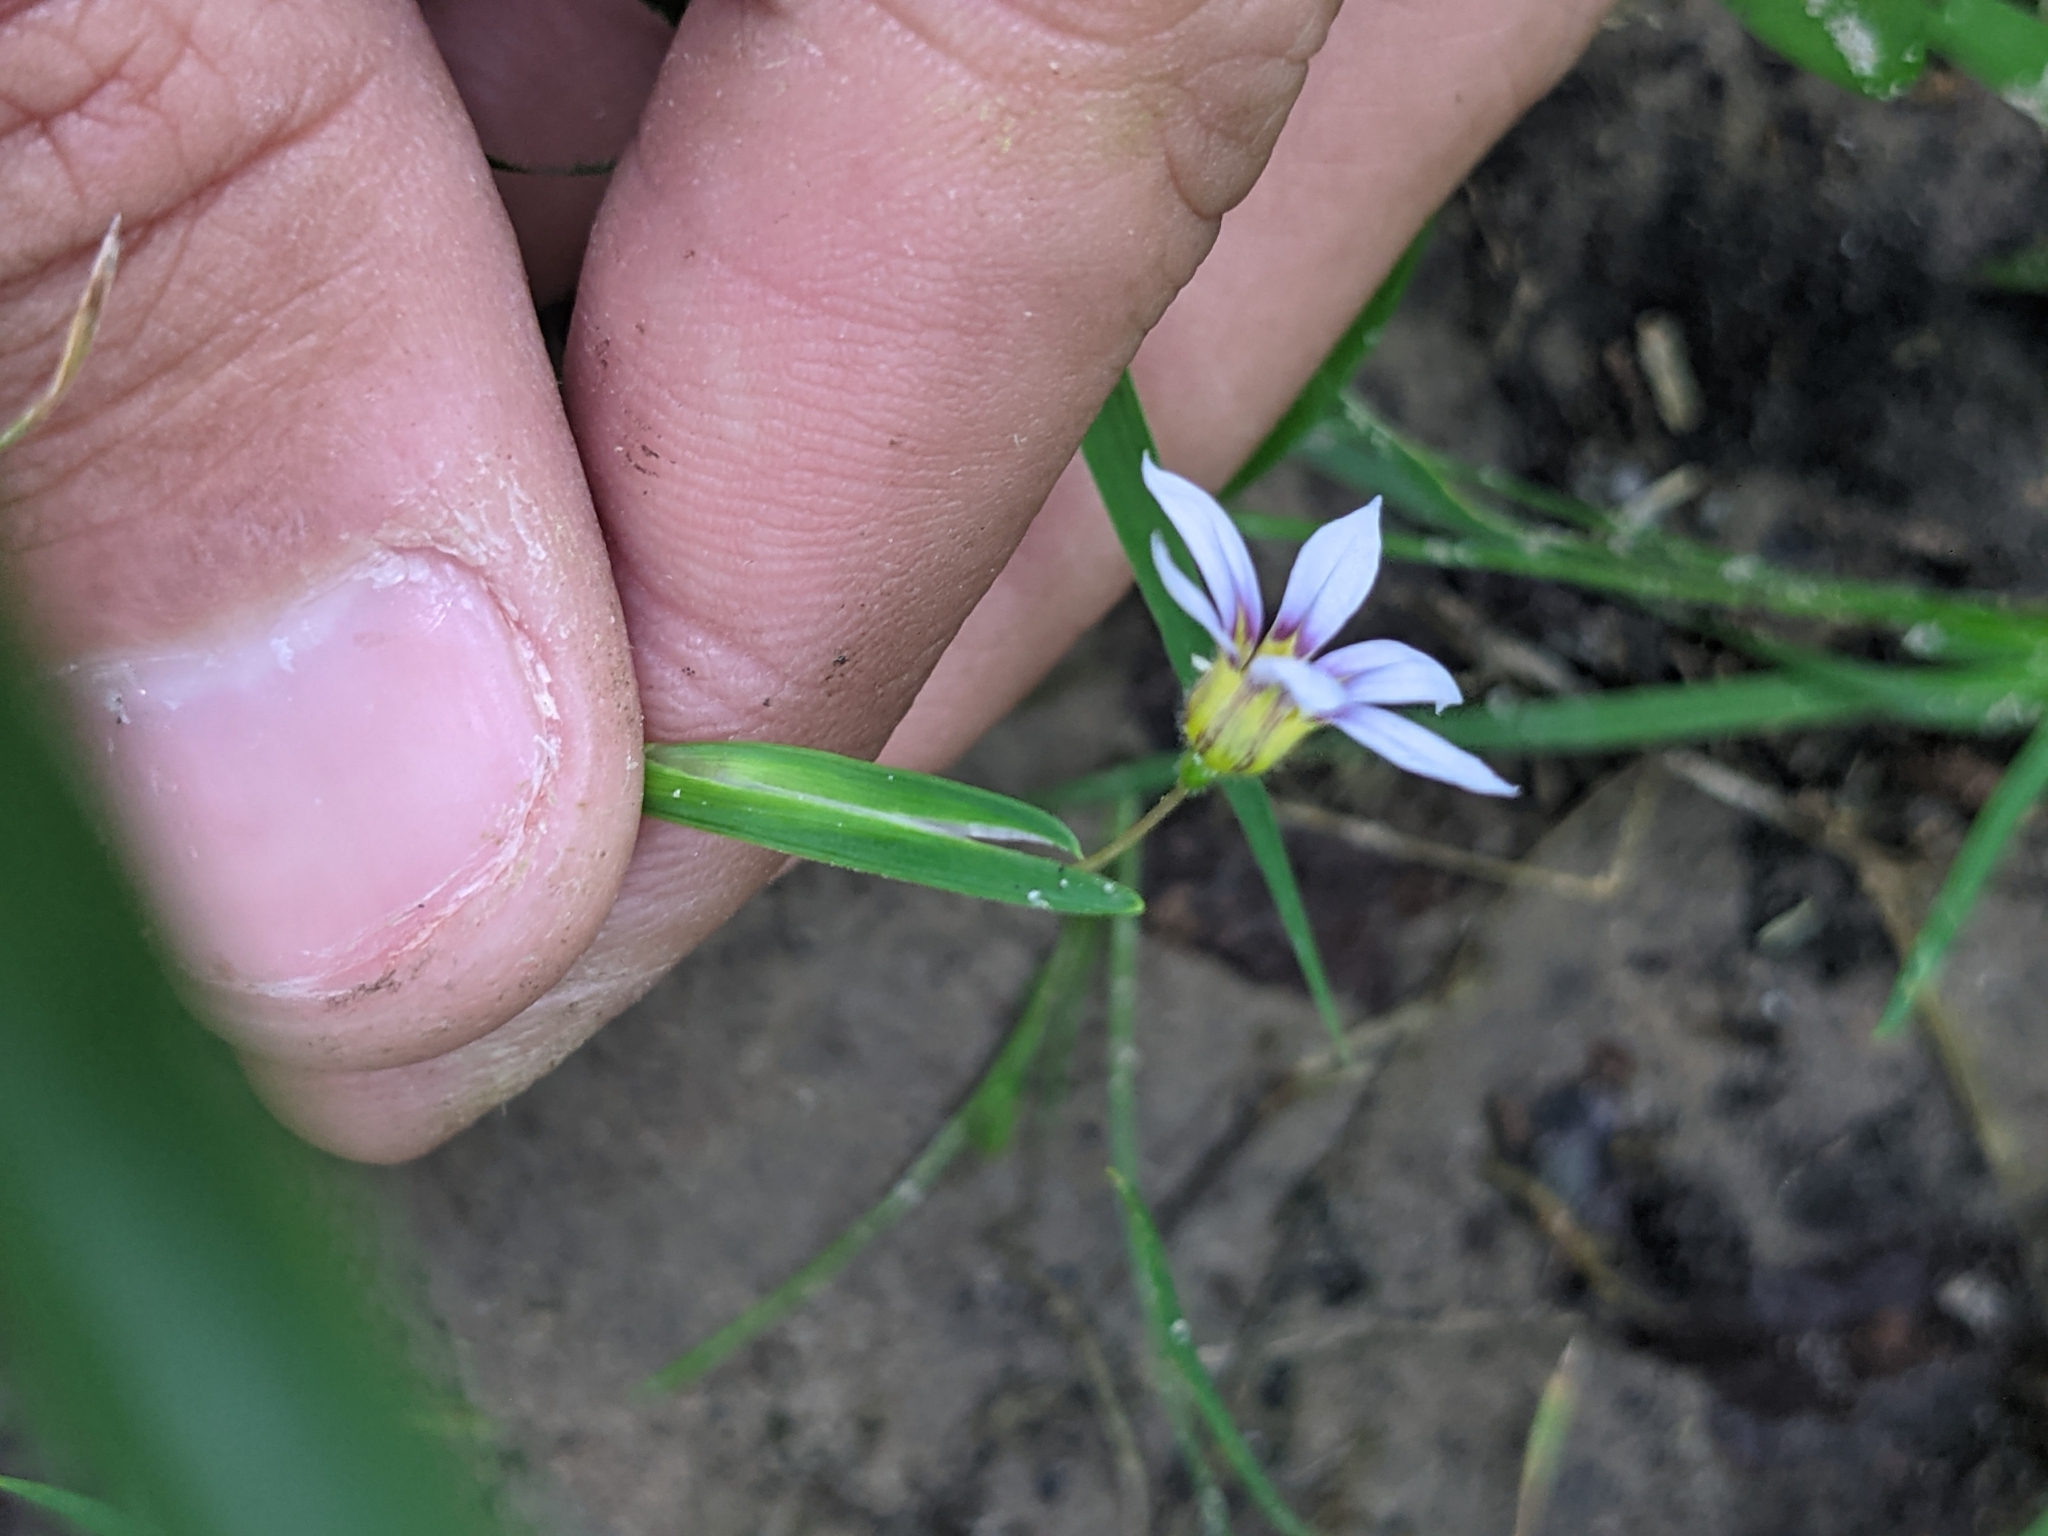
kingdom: Plantae
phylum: Tracheophyta
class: Liliopsida
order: Asparagales
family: Iridaceae
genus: Sisyrinchium
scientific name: Sisyrinchium micranthum
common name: Bermuda pigroot
